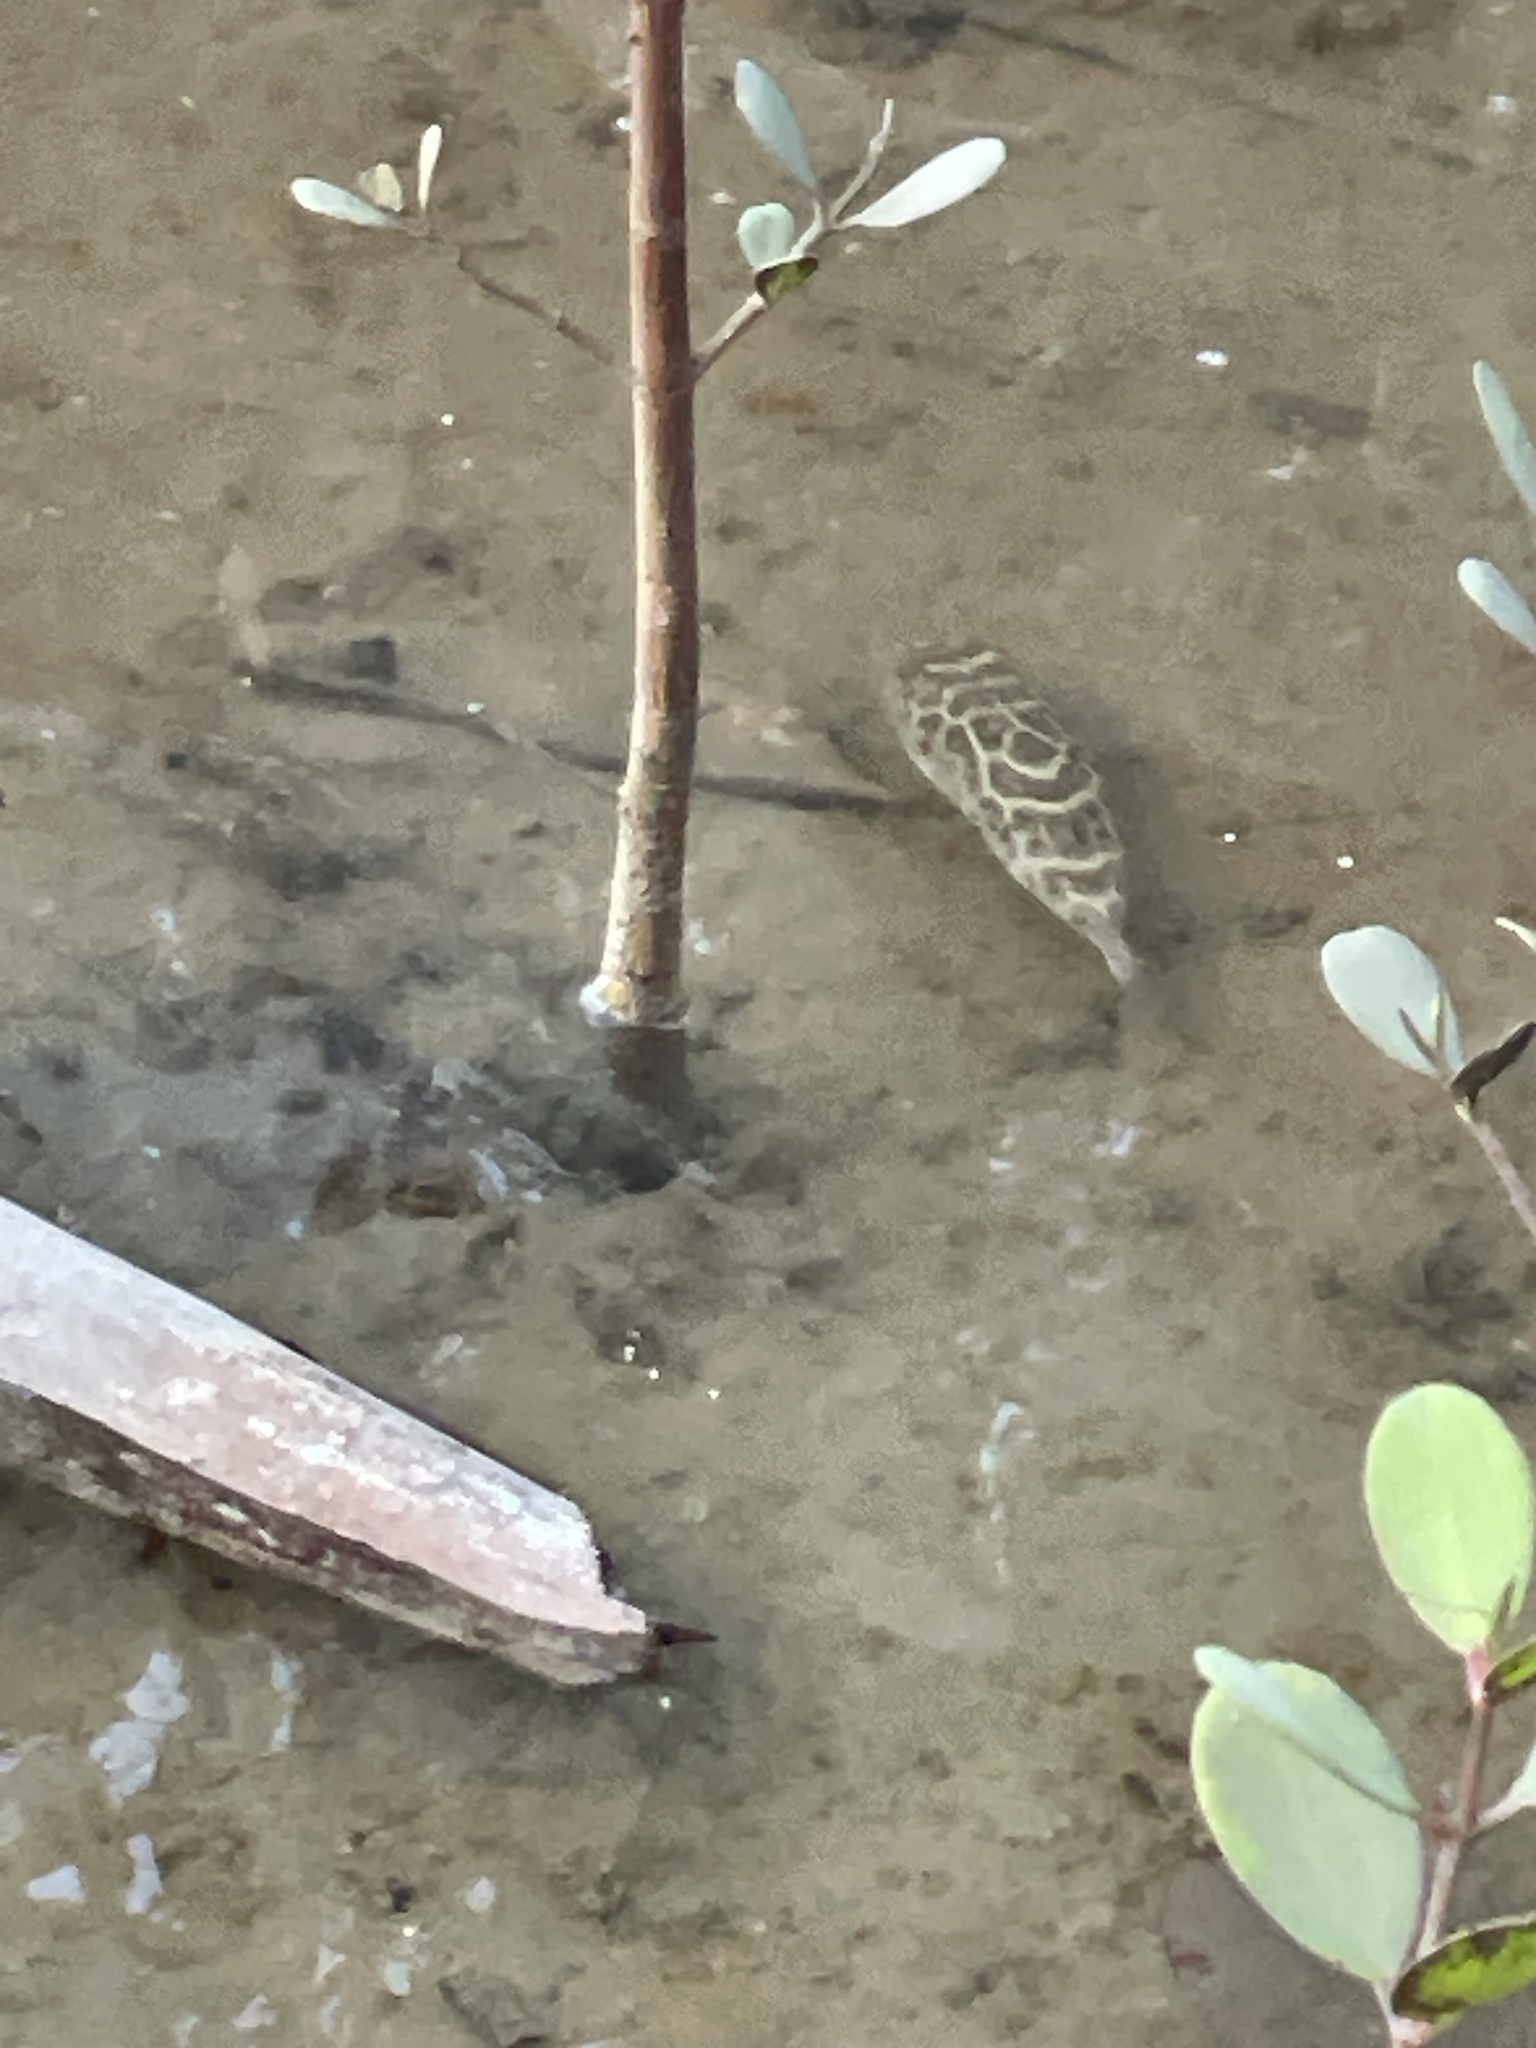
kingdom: Animalia
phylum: Chordata
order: Tetraodontiformes
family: Tetraodontidae
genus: Sphoeroides
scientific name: Sphoeroides testudineus
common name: Checkered puffer
